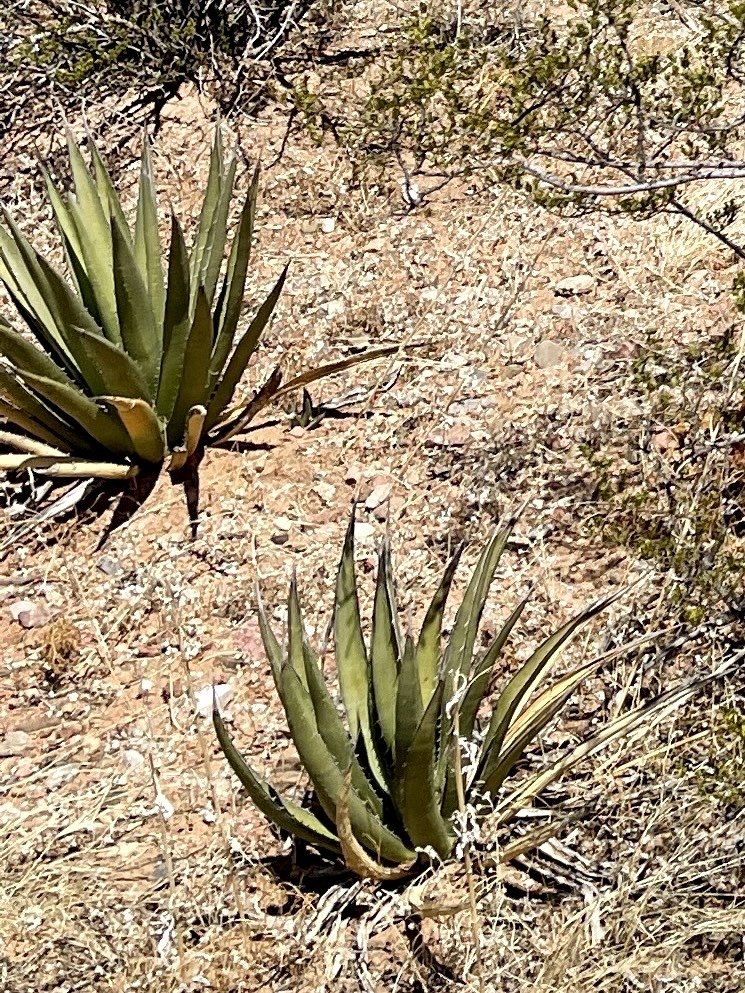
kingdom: Plantae
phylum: Tracheophyta
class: Liliopsida
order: Asparagales
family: Asparagaceae
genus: Agave
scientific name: Agave lechuguilla
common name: Lecheguilla agave
